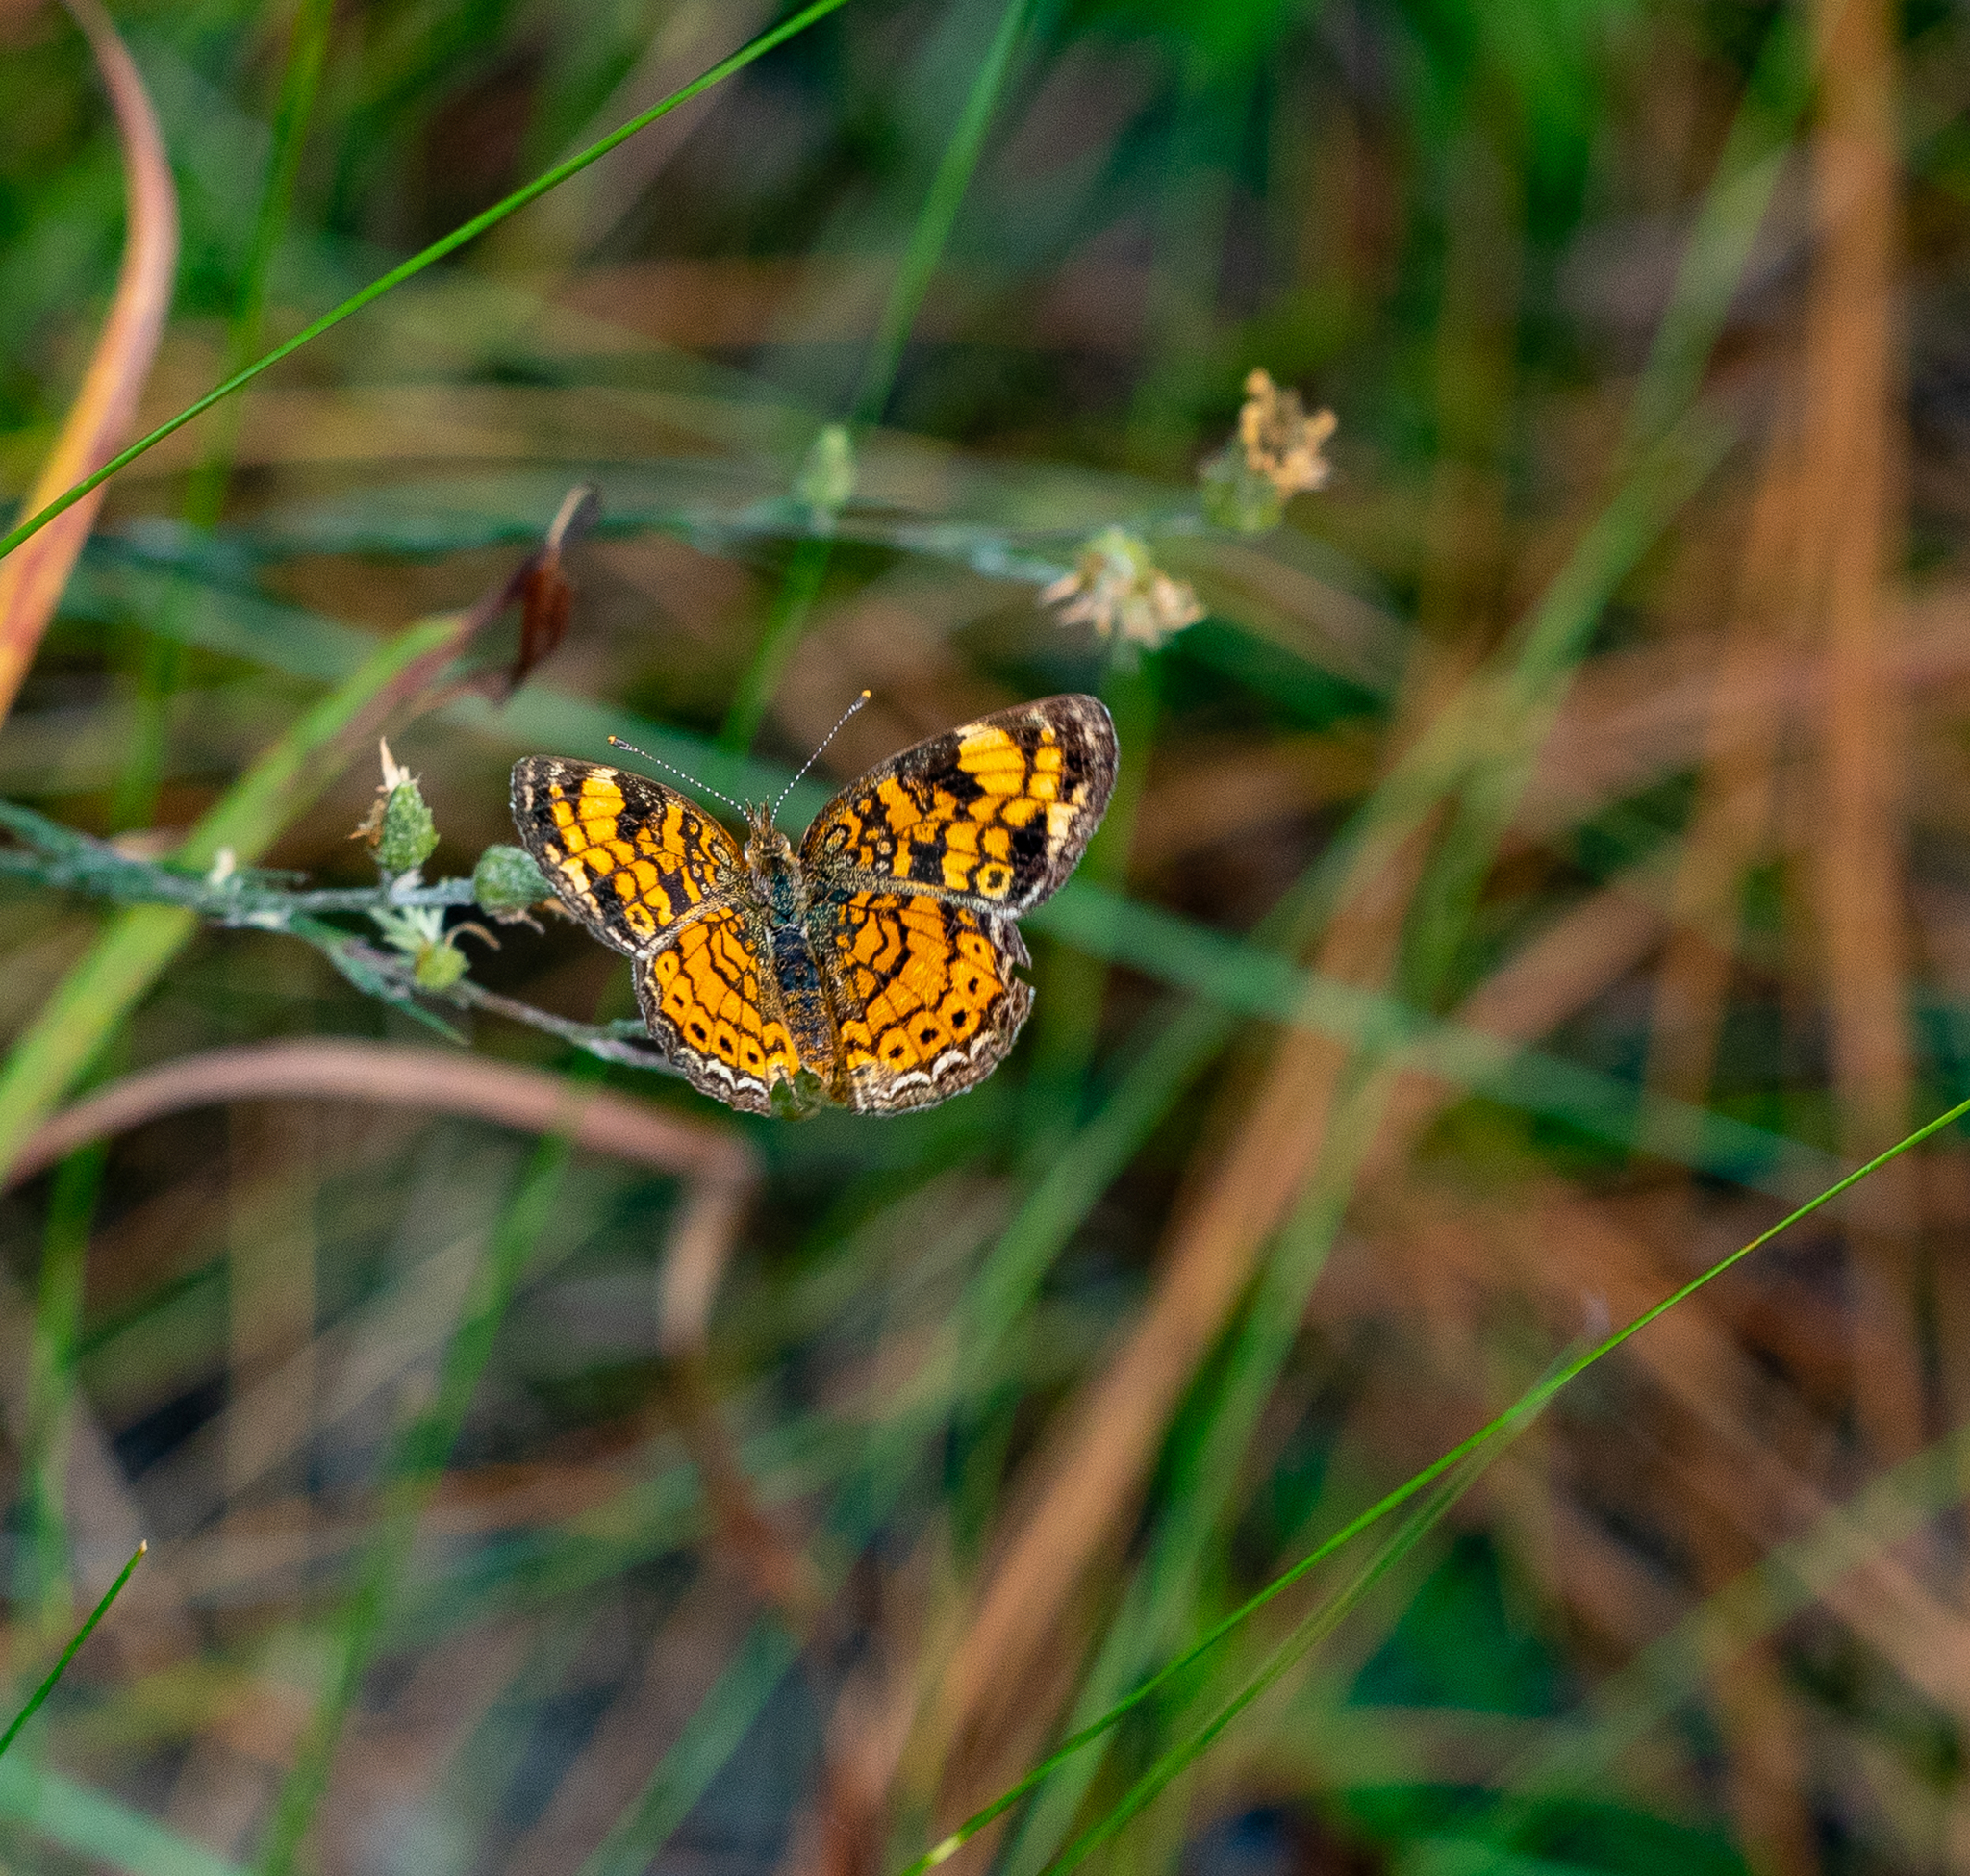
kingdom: Animalia
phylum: Arthropoda
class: Insecta
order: Lepidoptera
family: Nymphalidae
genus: Phyciodes
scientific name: Phyciodes tharos
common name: Pearl crescent
